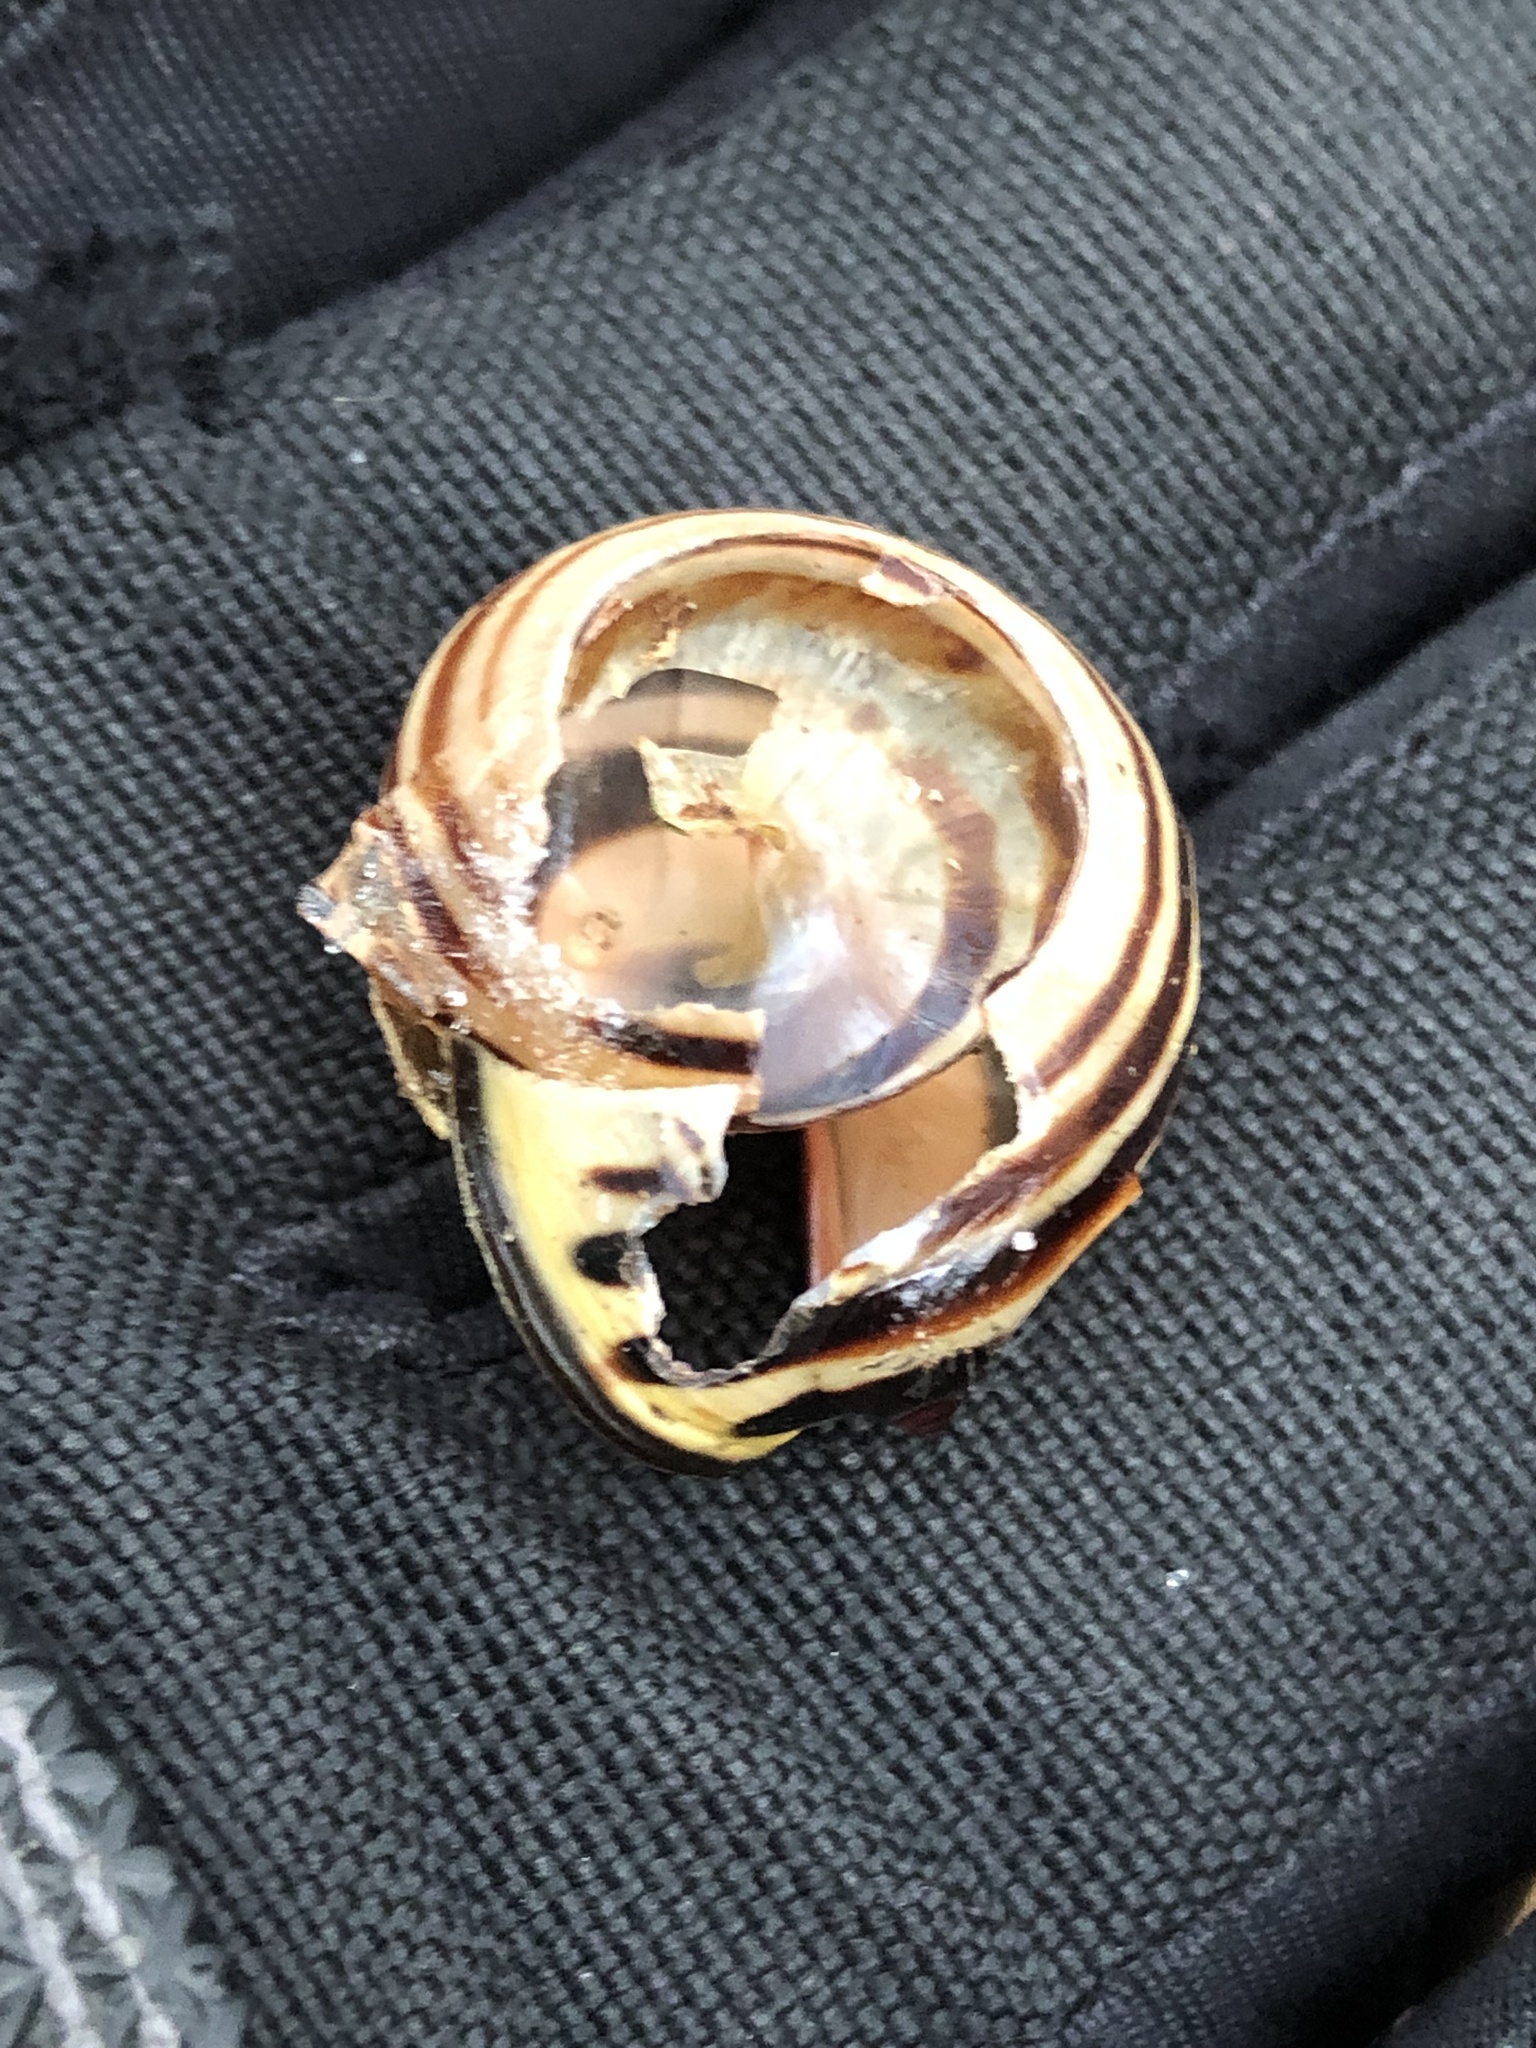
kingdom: Animalia
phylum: Mollusca
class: Gastropoda
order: Stylommatophora
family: Helicidae
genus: Cepaea
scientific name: Cepaea nemoralis
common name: Grovesnail
